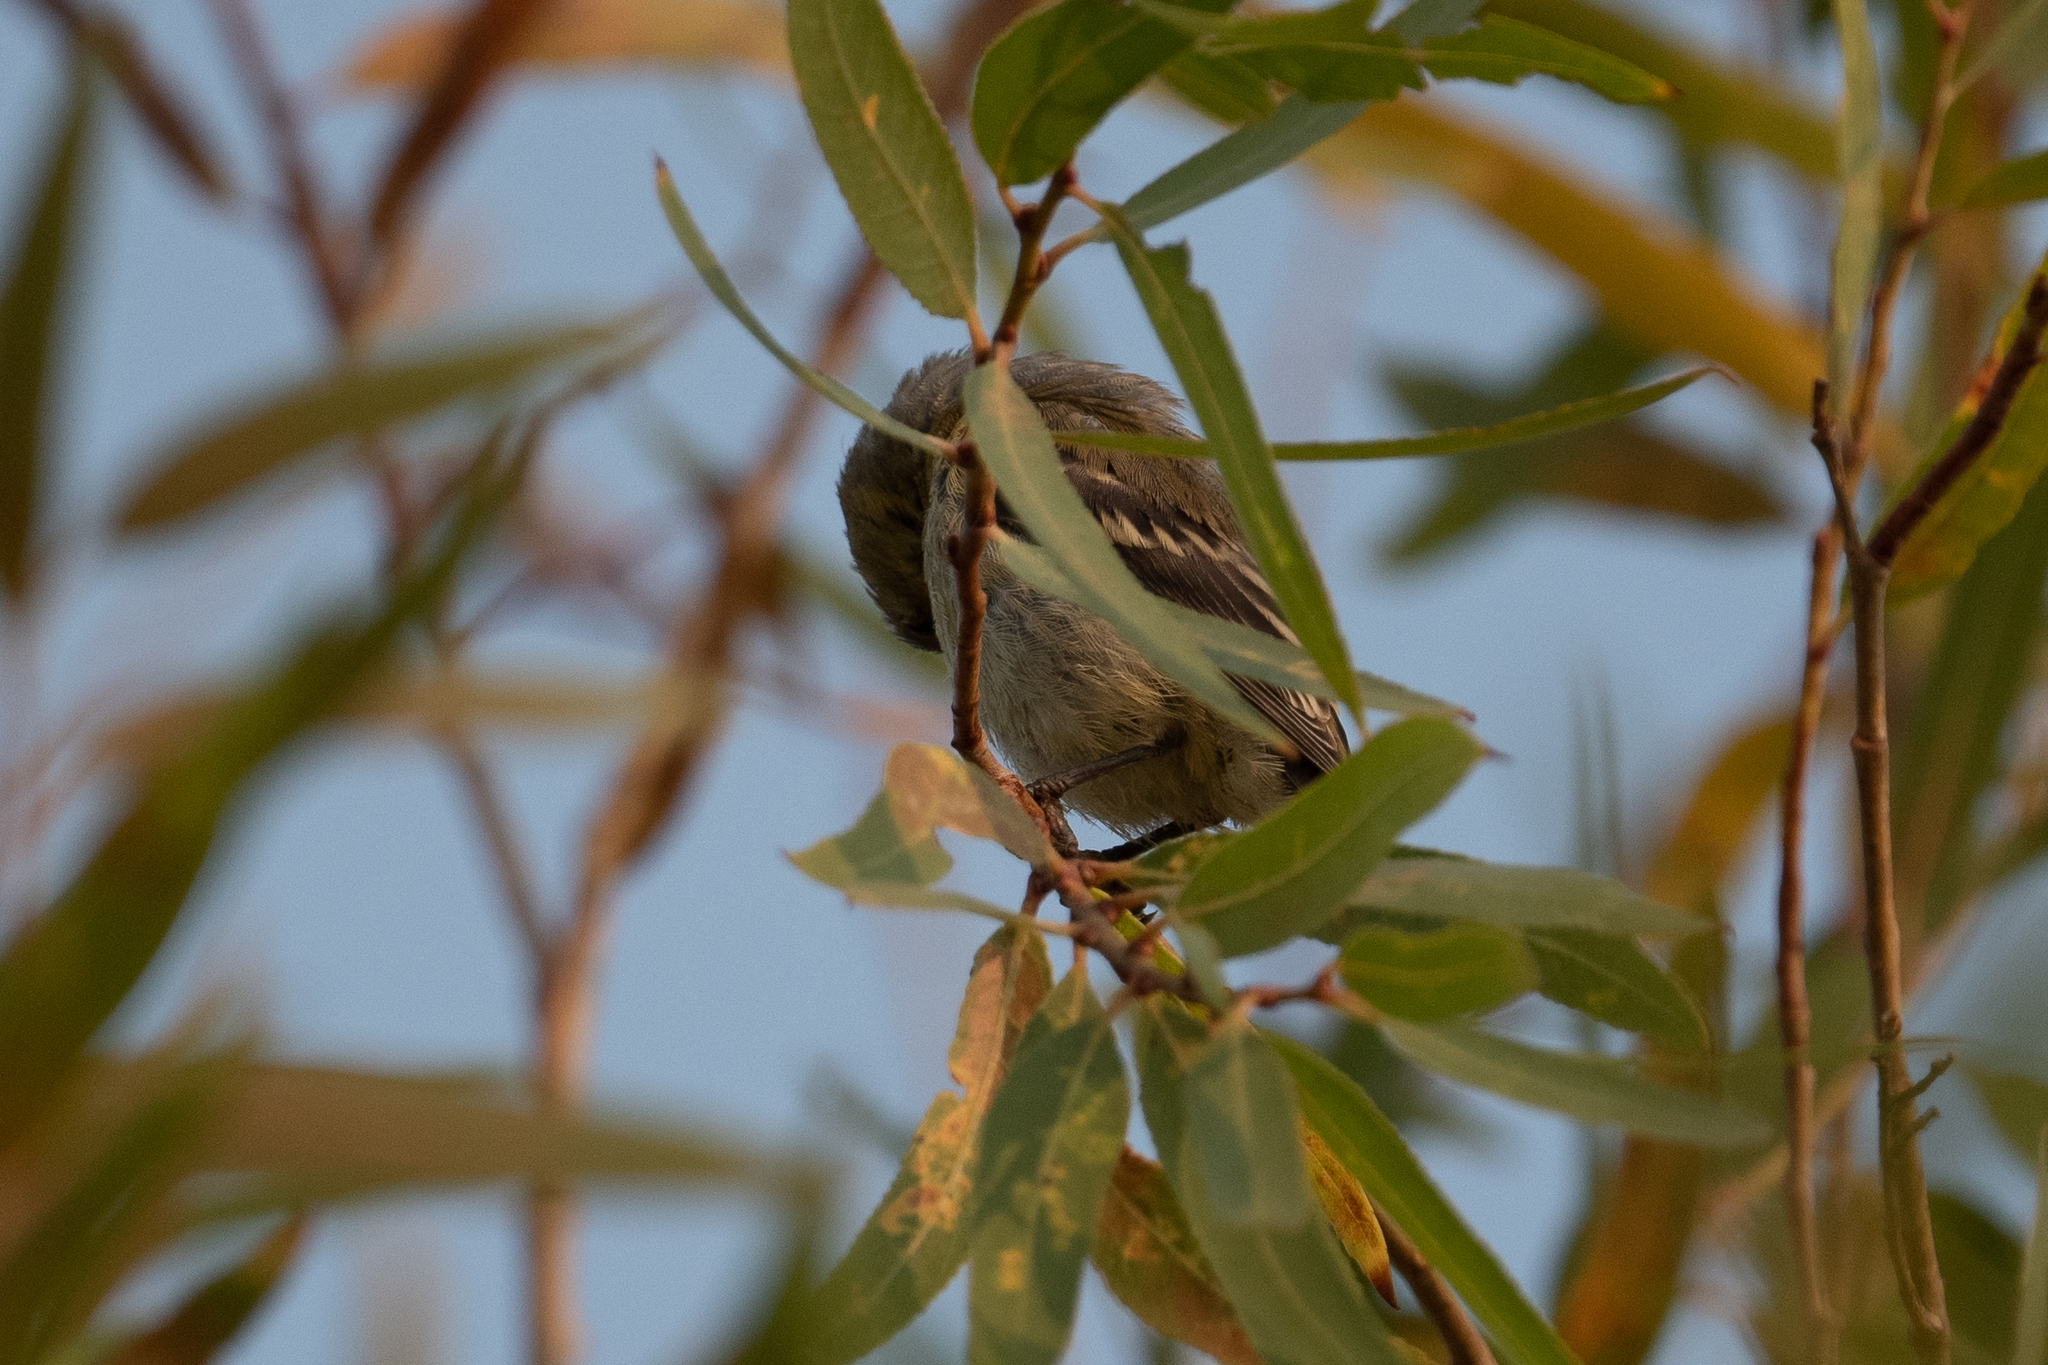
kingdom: Animalia
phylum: Chordata
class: Aves
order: Passeriformes
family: Fringillidae
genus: Spinus
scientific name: Spinus
